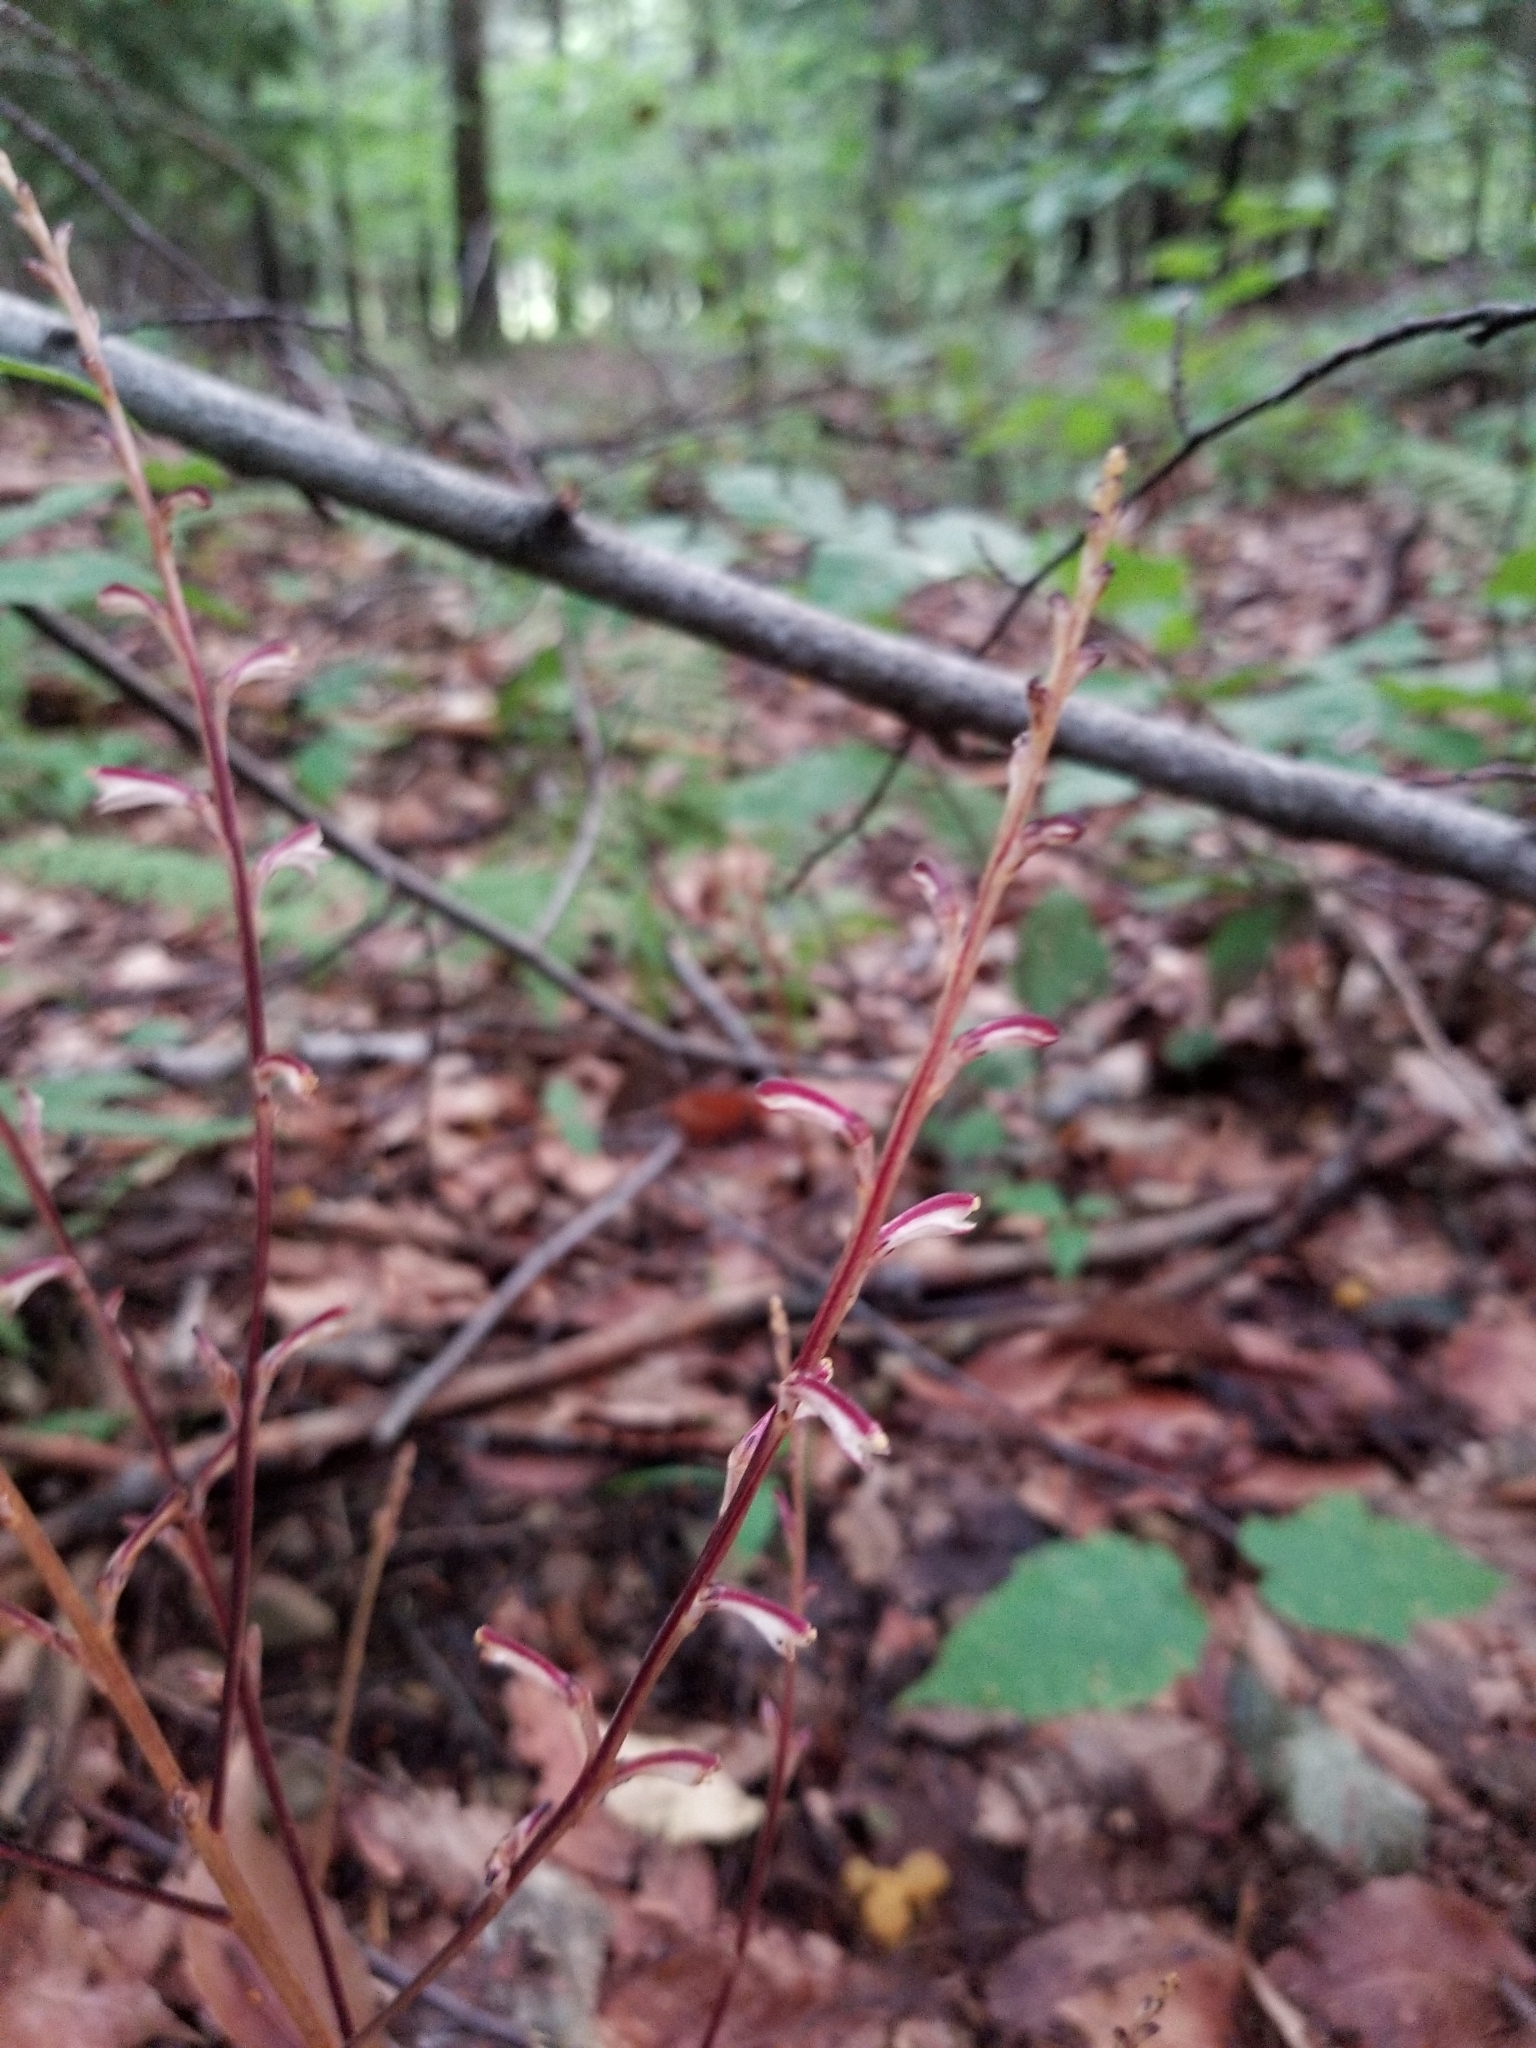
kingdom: Plantae
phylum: Tracheophyta
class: Magnoliopsida
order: Lamiales
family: Orobanchaceae
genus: Epifagus
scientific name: Epifagus virginiana
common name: Beechdrops
